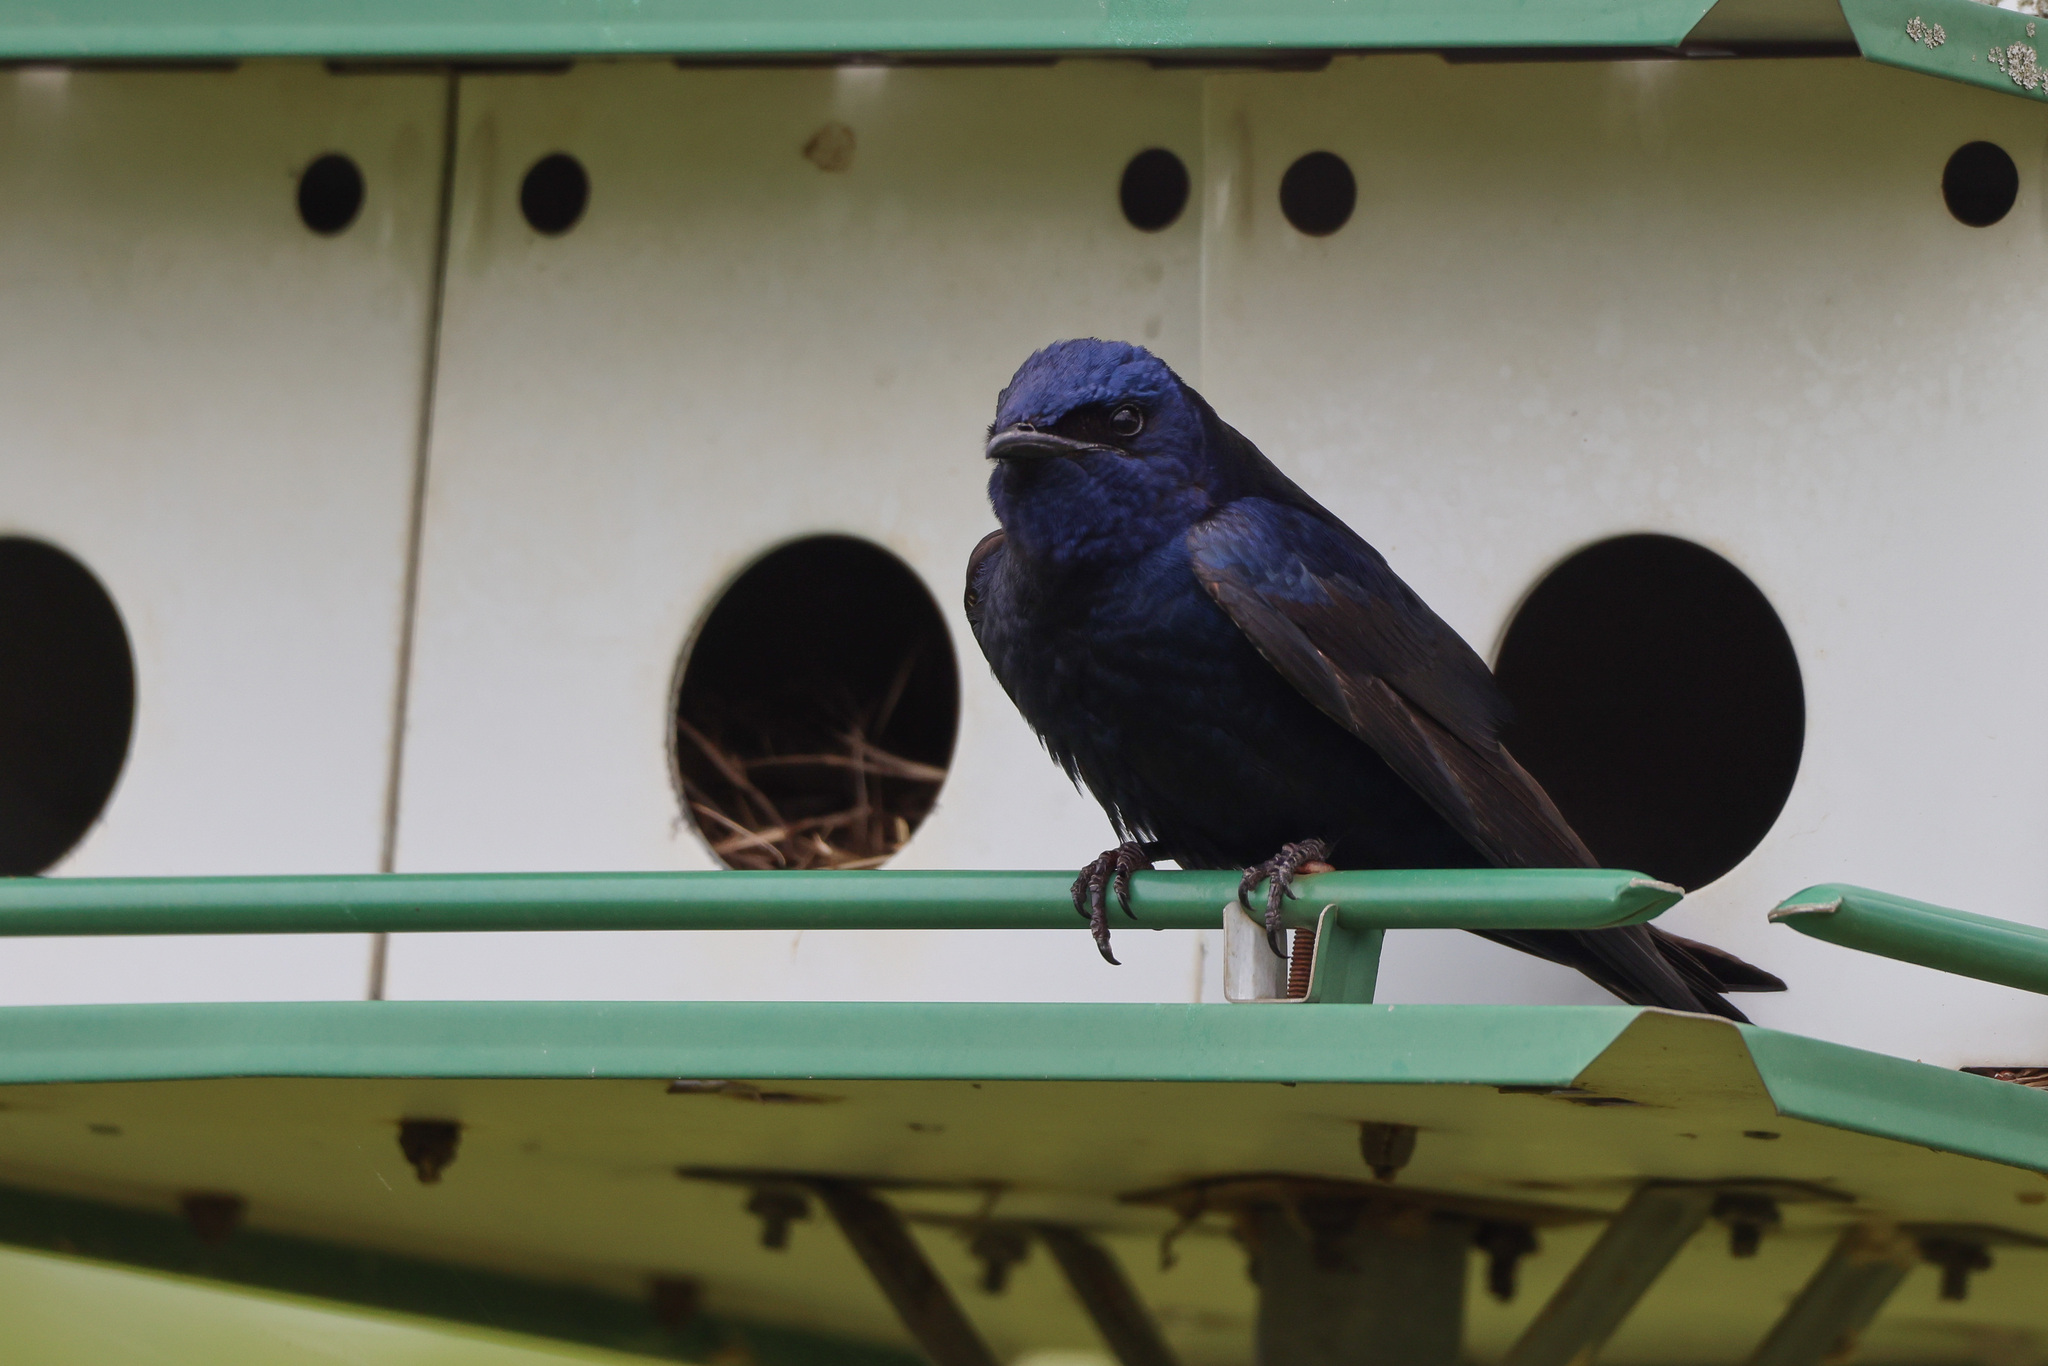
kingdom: Animalia
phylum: Chordata
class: Aves
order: Passeriformes
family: Hirundinidae
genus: Progne
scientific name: Progne subis
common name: Purple martin
